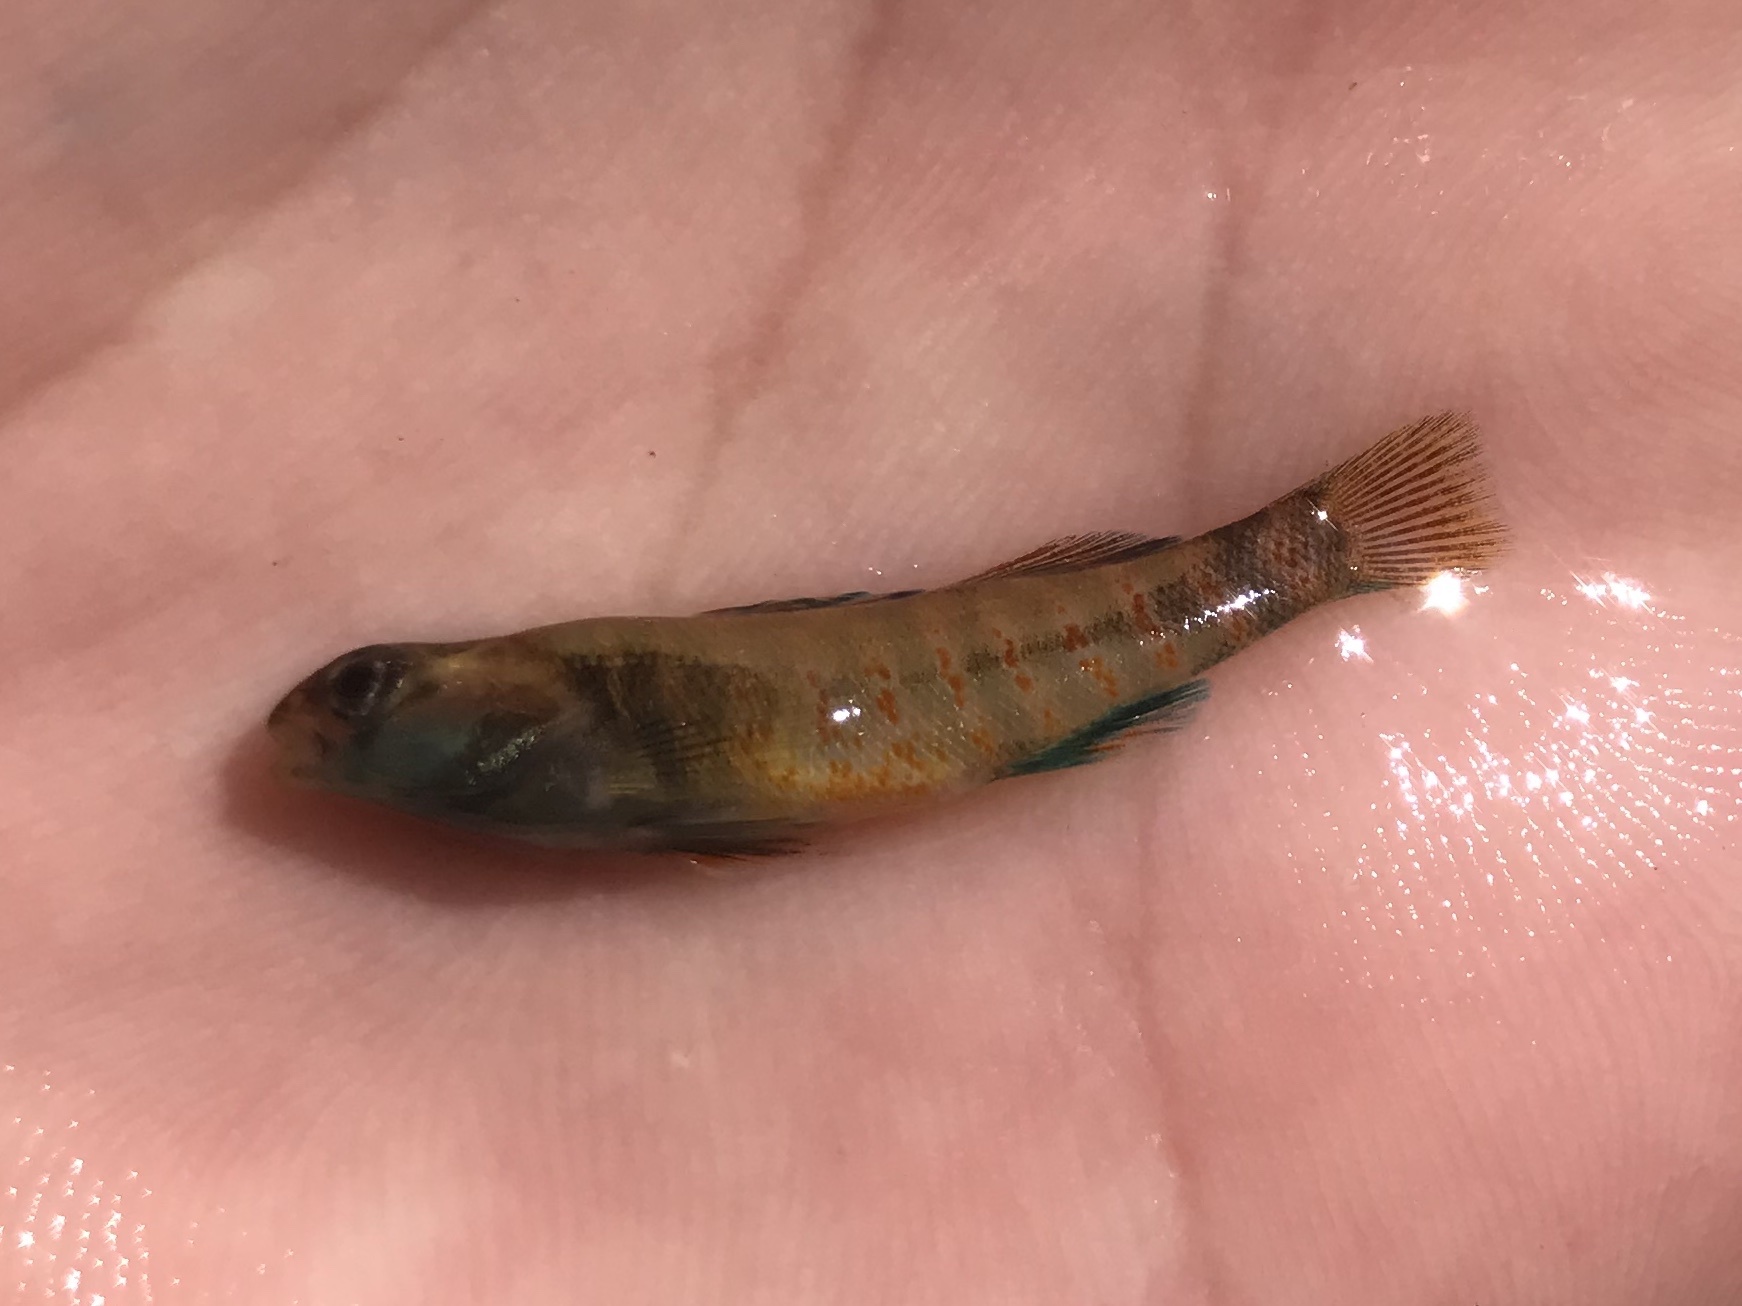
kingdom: Animalia
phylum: Chordata
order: Perciformes
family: Percidae
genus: Etheostoma
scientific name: Etheostoma lepidum
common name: Greenthroat darter
